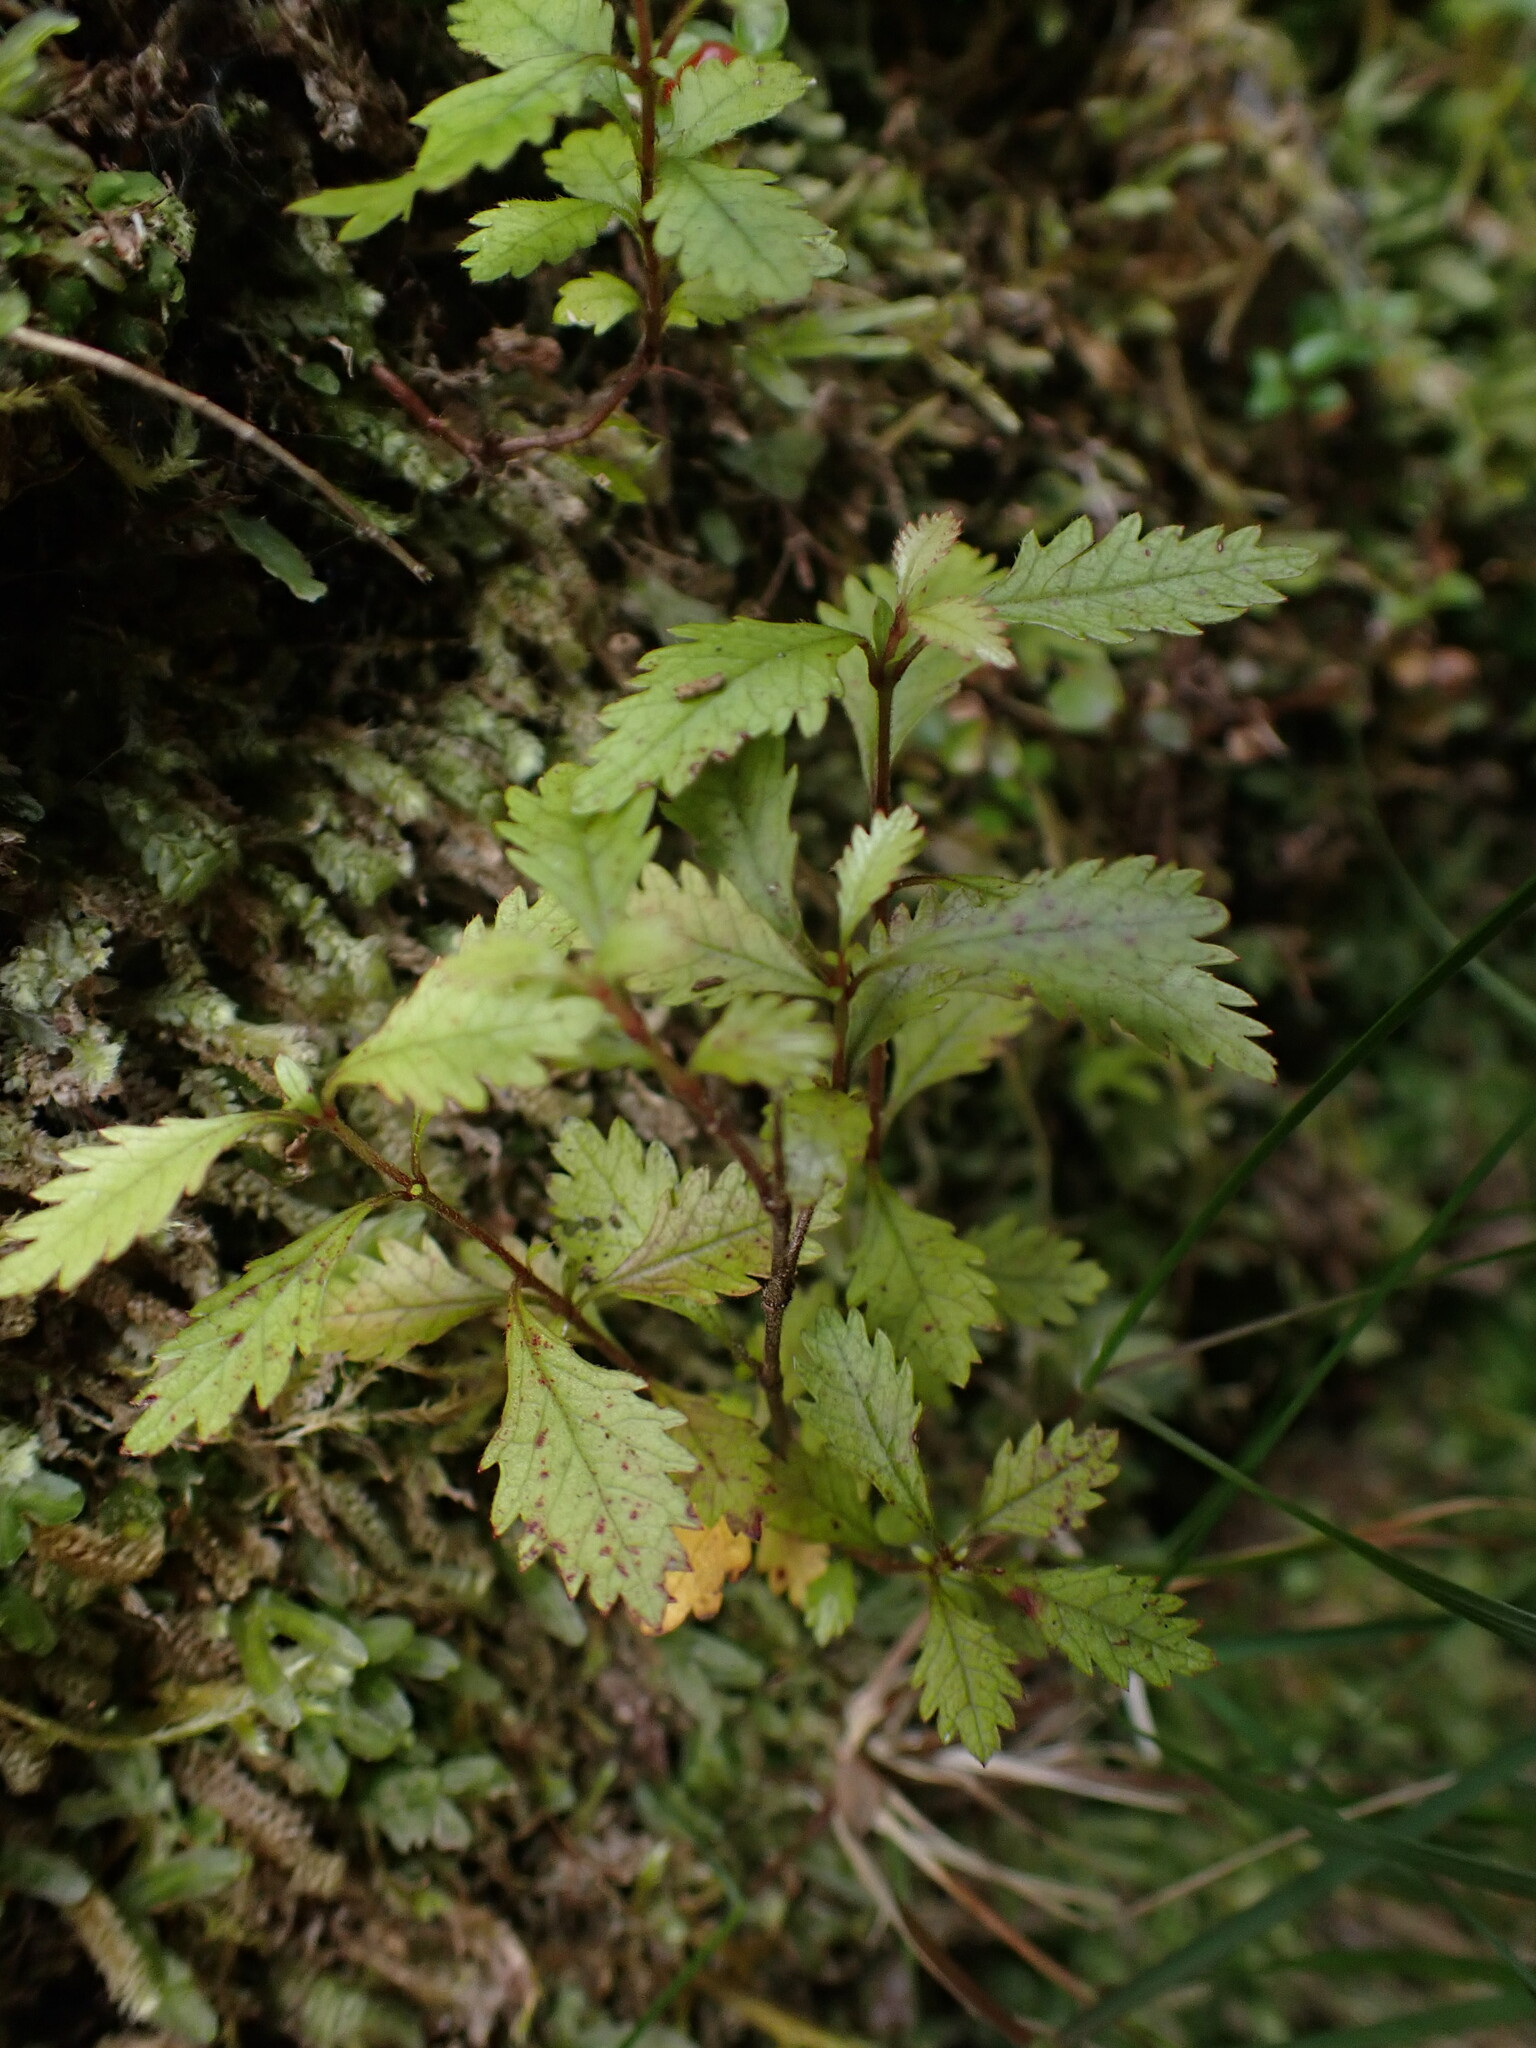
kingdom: Plantae
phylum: Tracheophyta
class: Magnoliopsida
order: Oxalidales
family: Cunoniaceae
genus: Pterophylla
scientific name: Pterophylla racemosa
